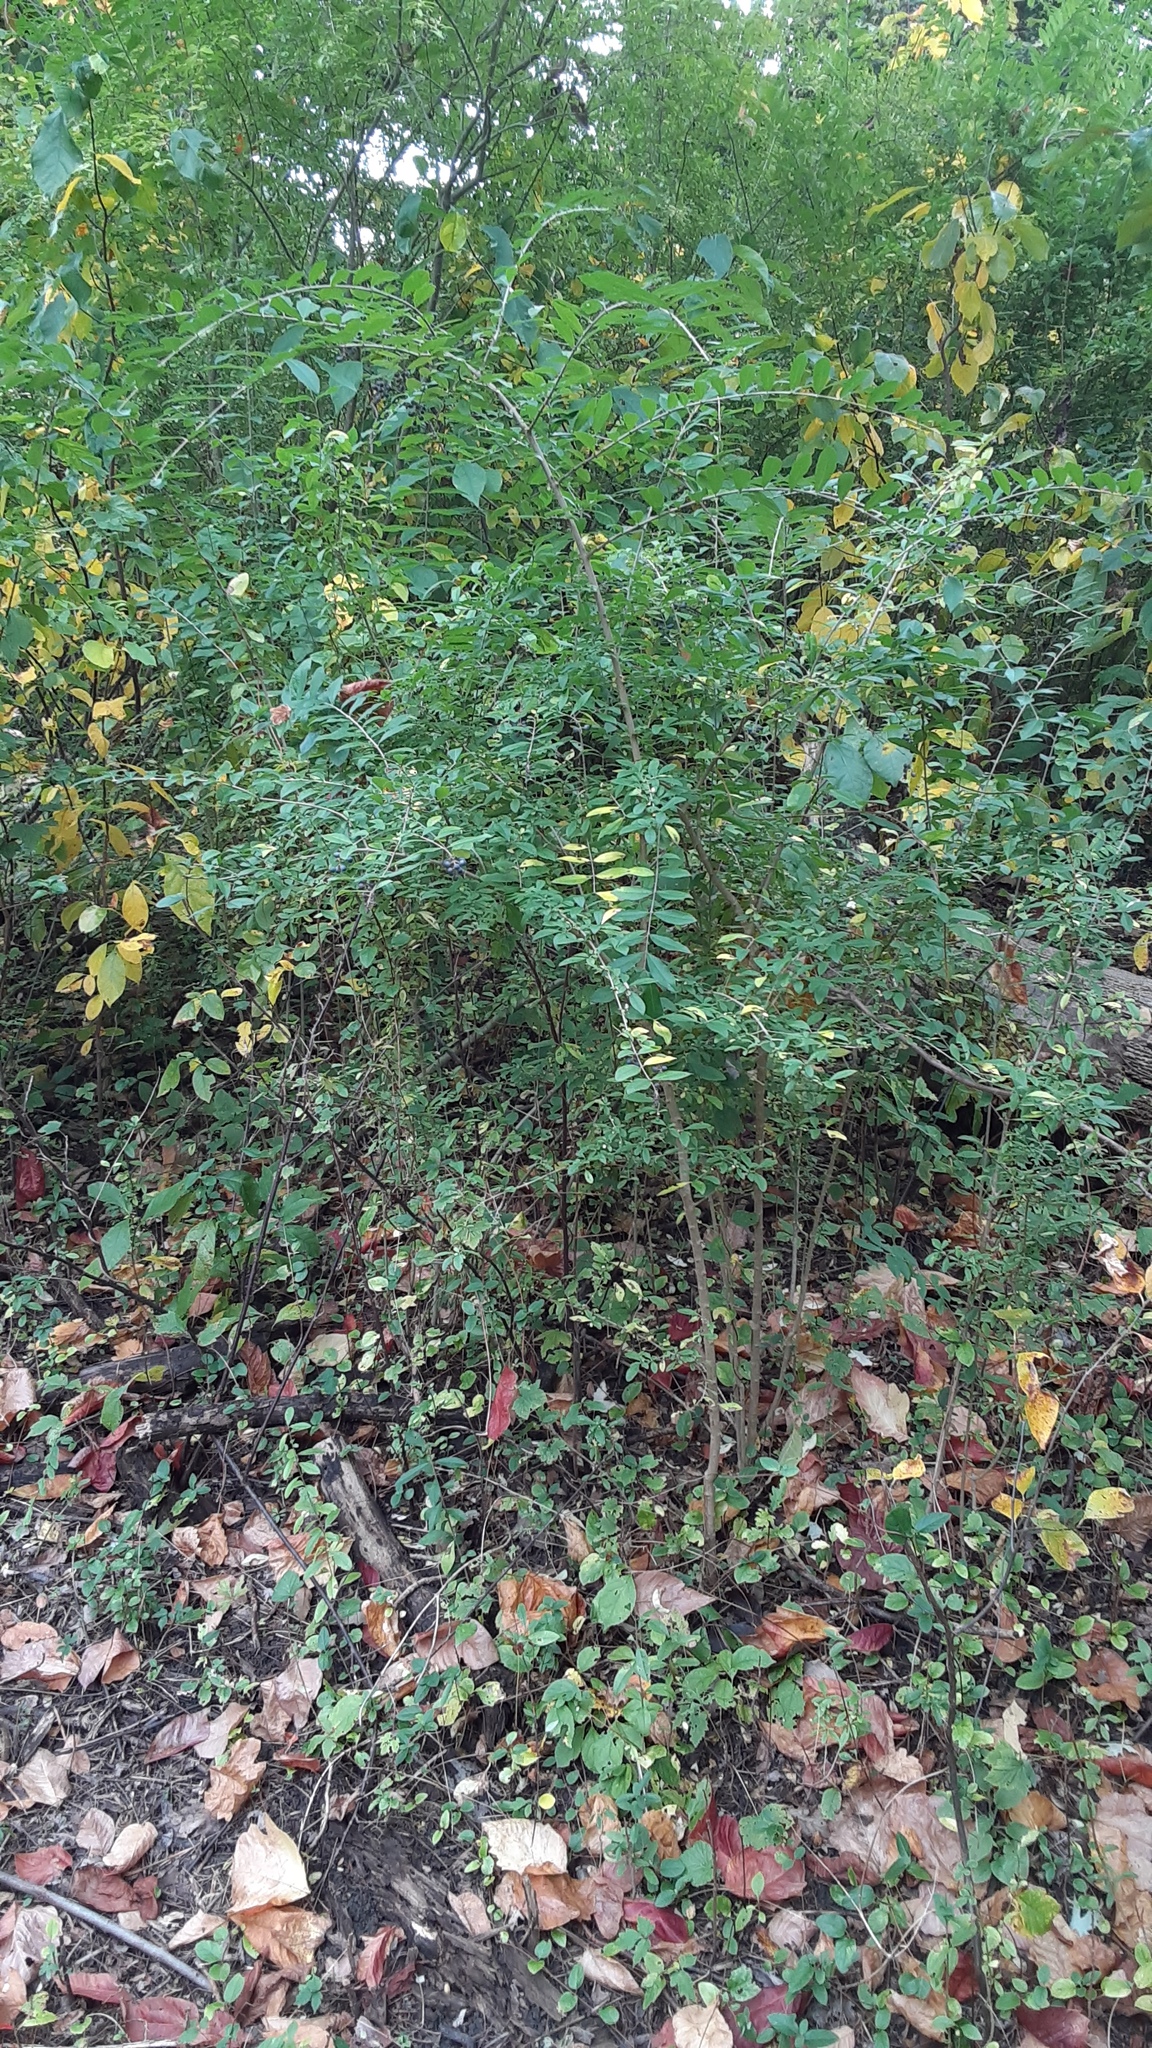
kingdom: Plantae
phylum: Tracheophyta
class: Magnoliopsida
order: Lamiales
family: Oleaceae
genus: Ligustrum
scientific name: Ligustrum obtusifolium
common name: Border privet
